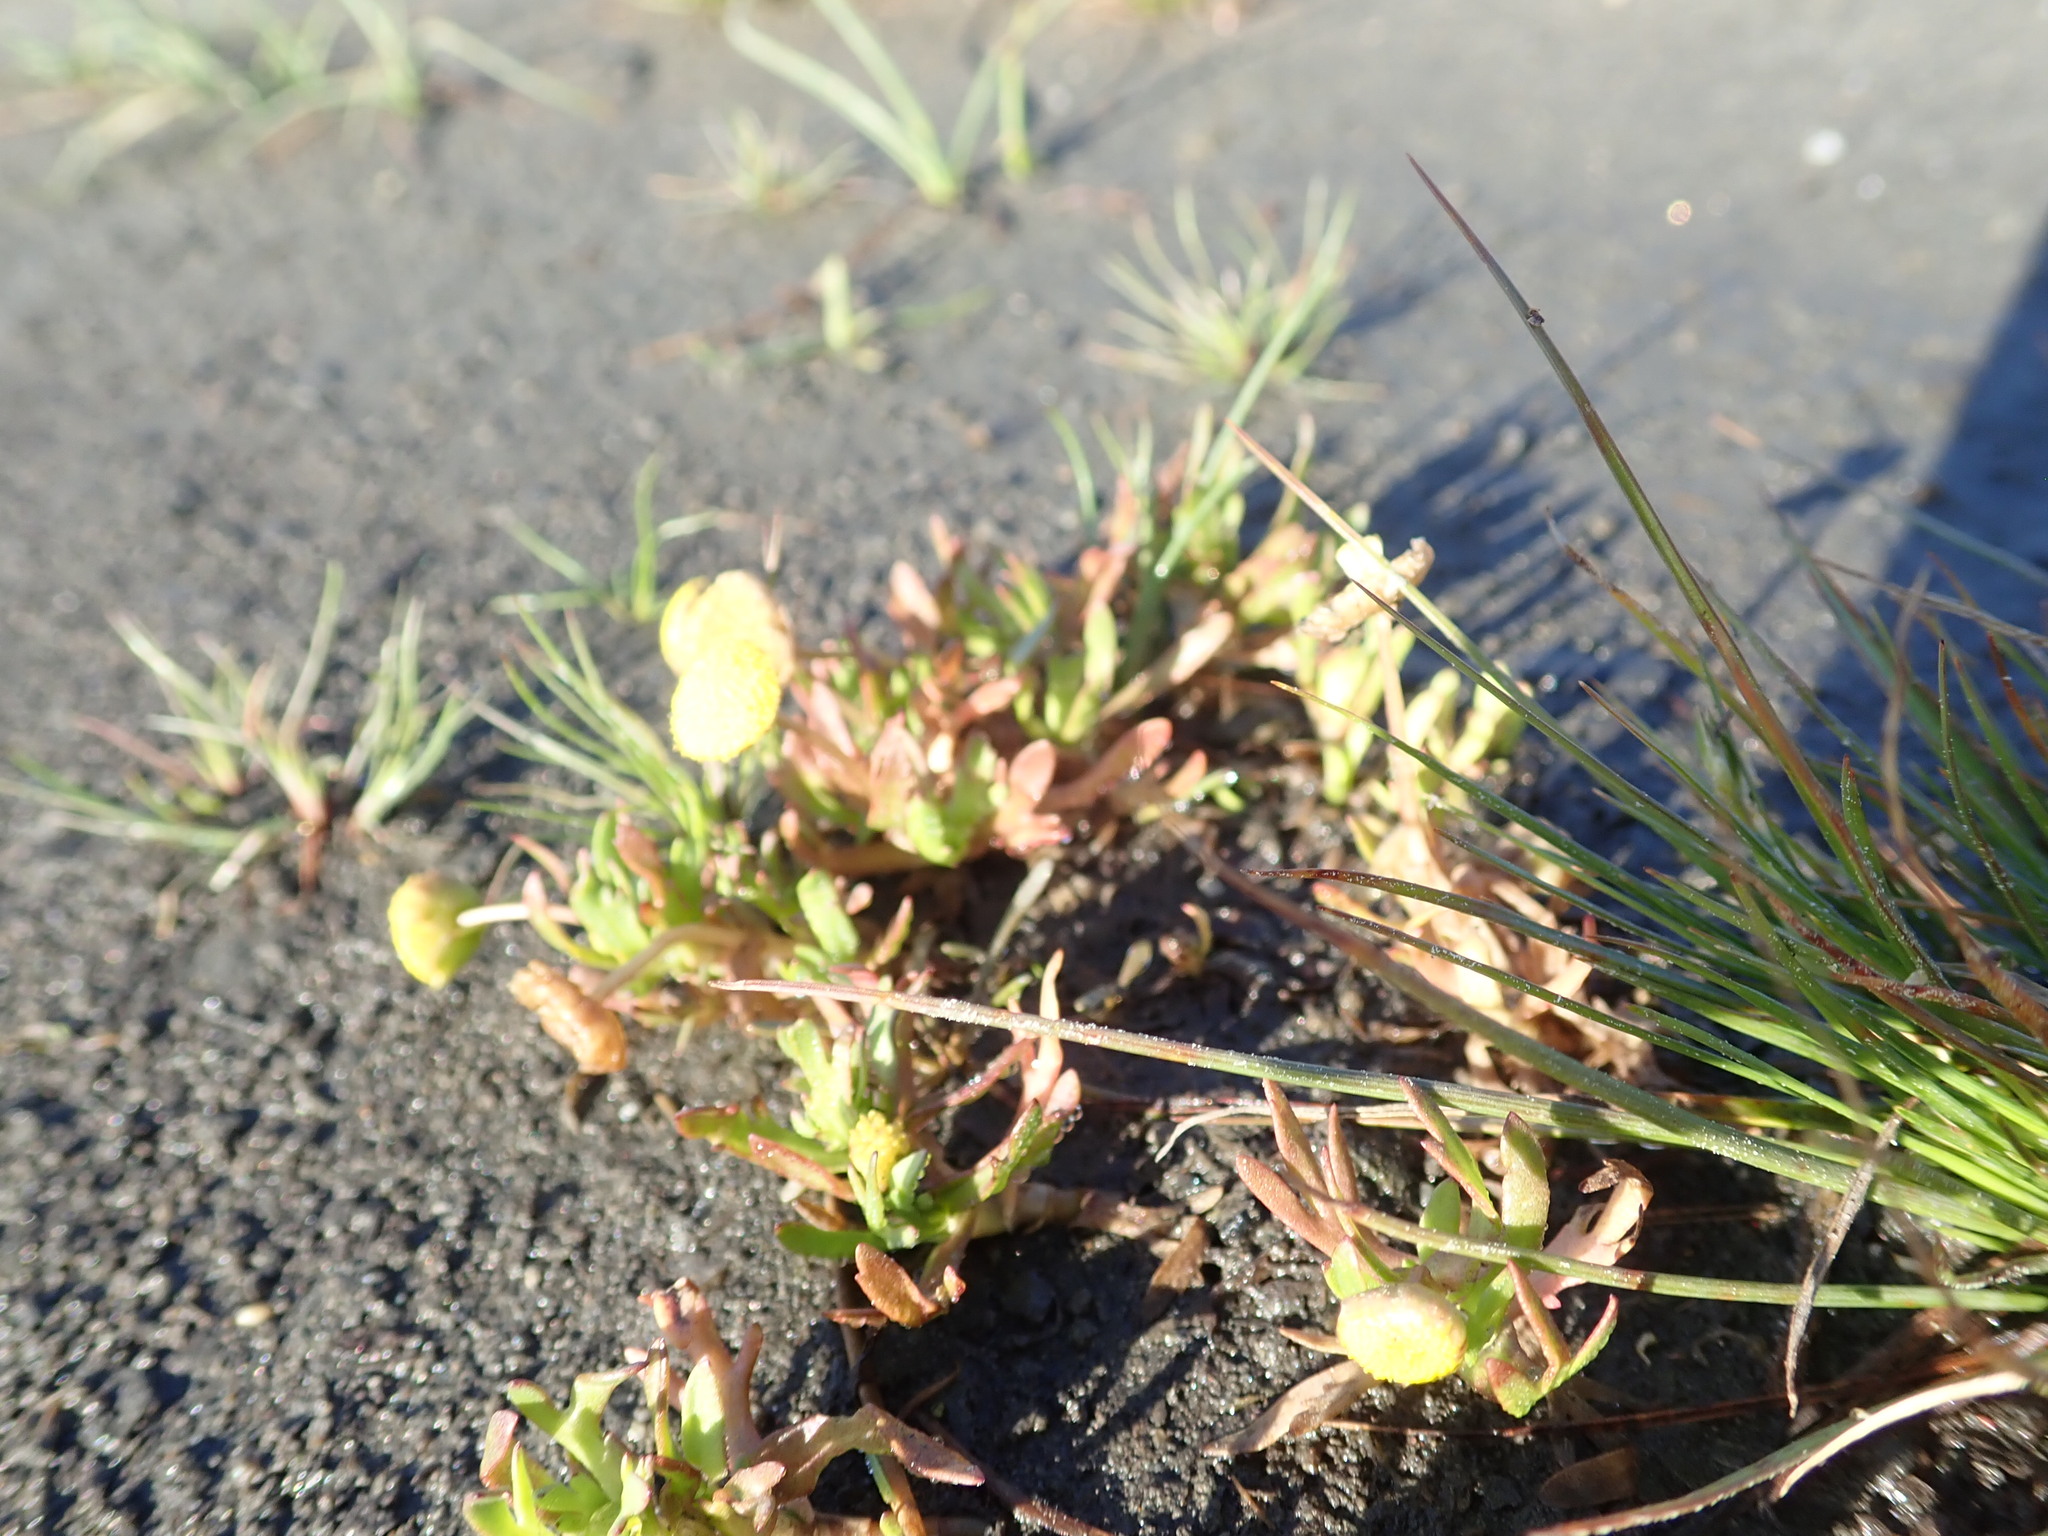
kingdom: Plantae
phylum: Tracheophyta
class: Magnoliopsida
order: Asterales
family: Asteraceae
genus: Cotula
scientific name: Cotula coronopifolia
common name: Buttonweed
